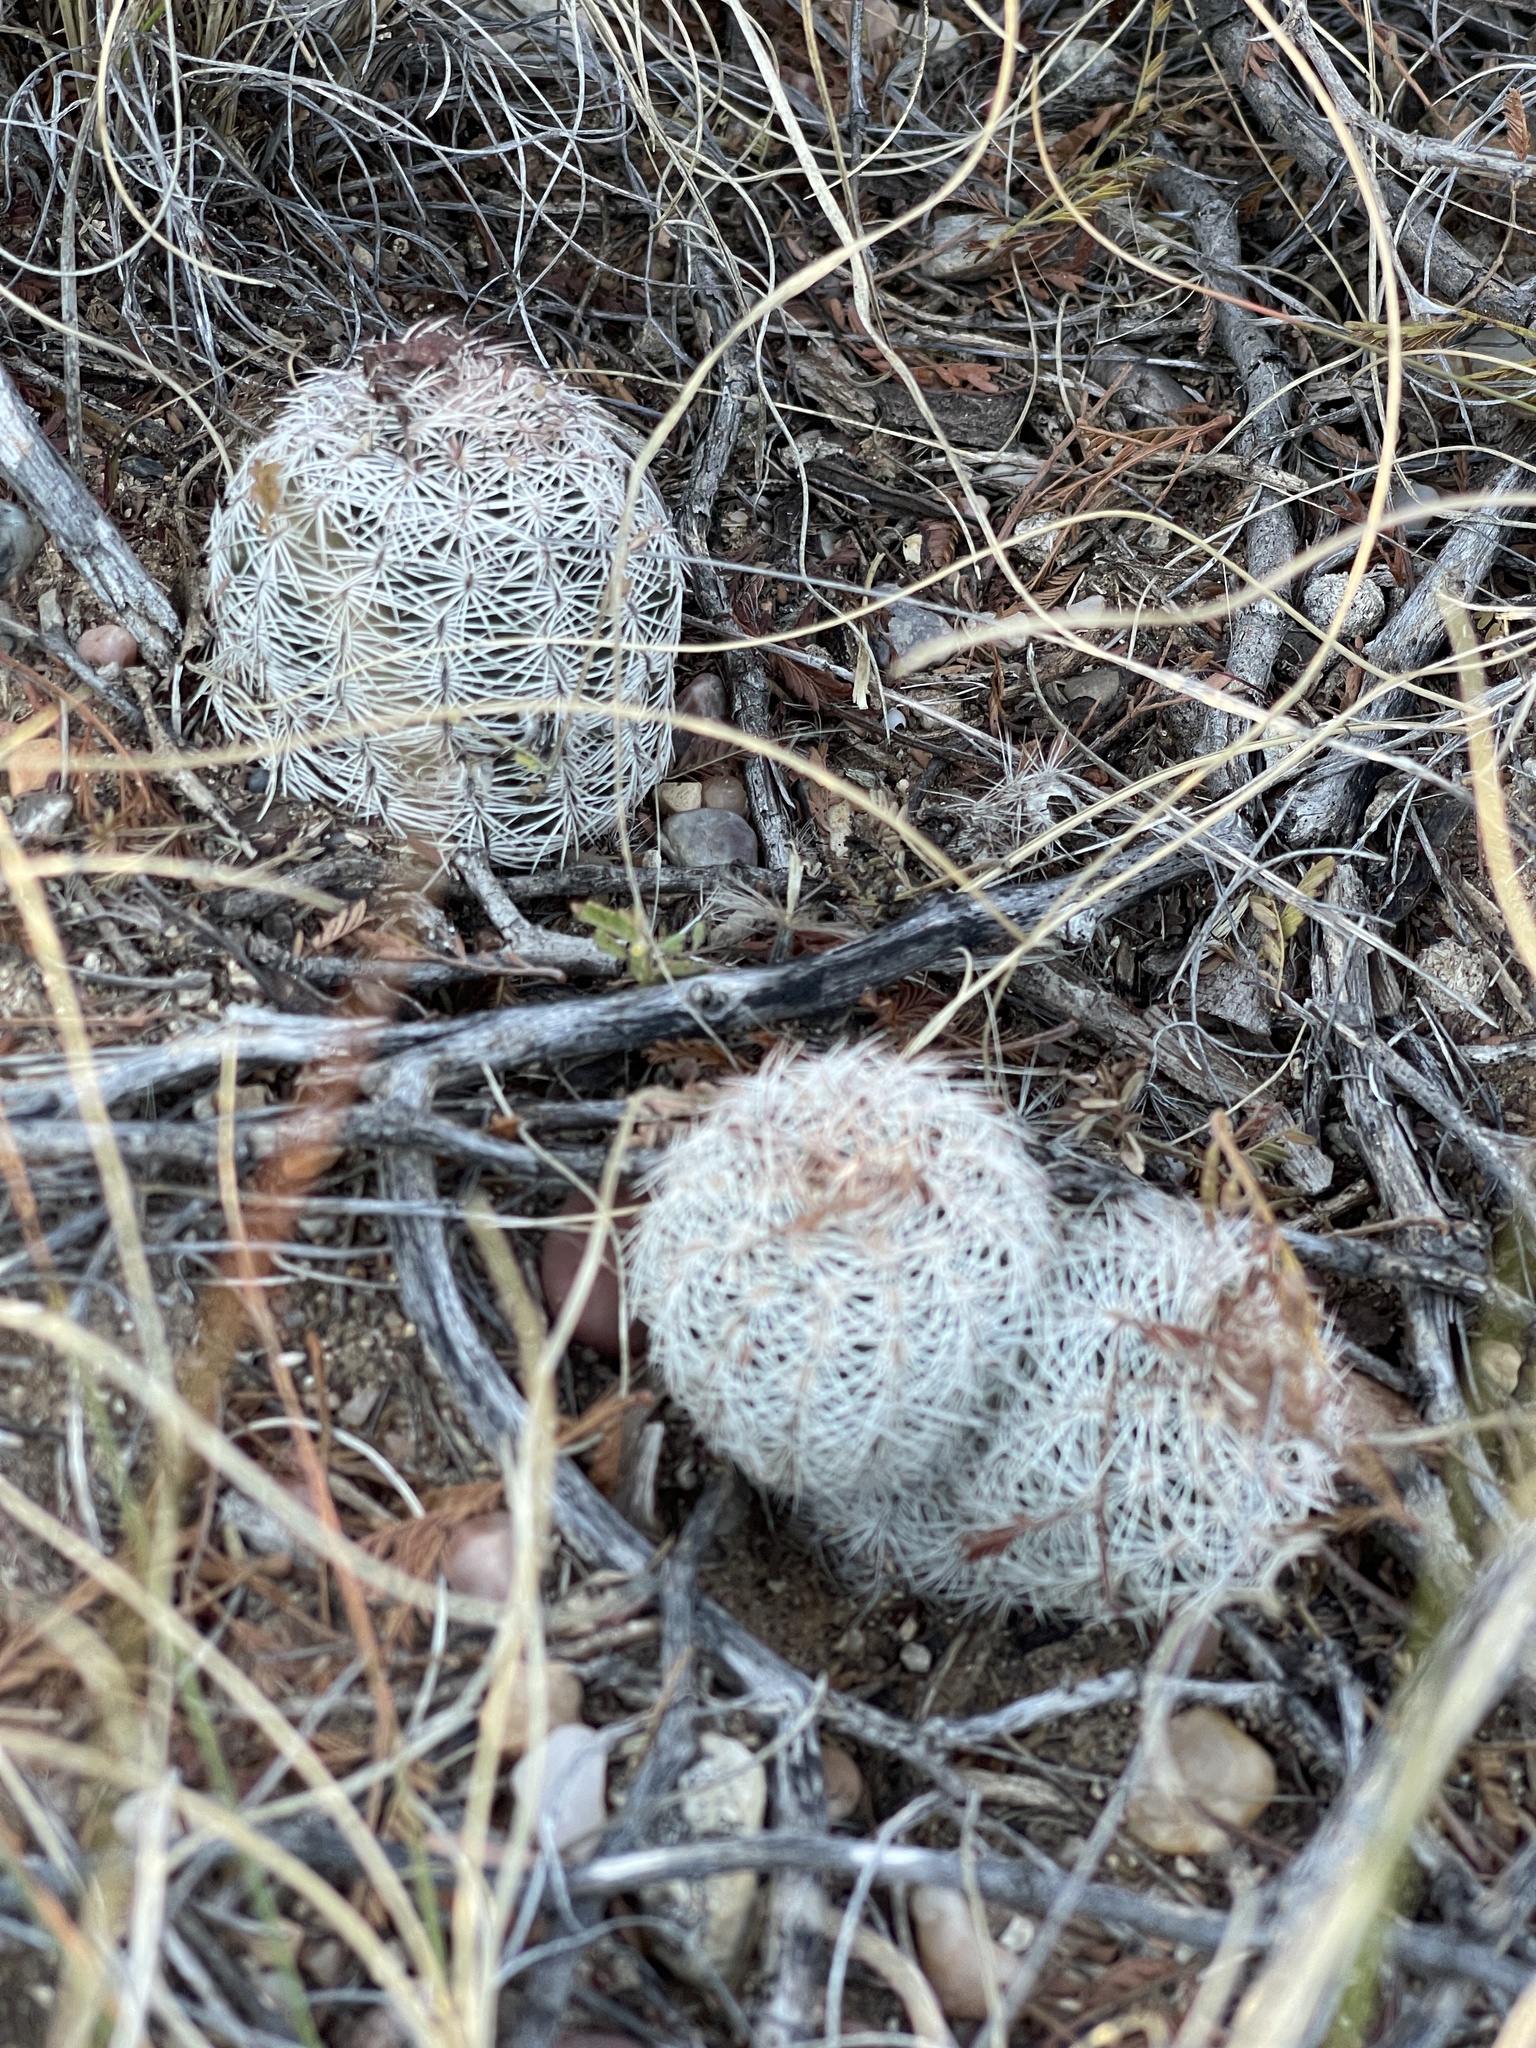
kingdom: Plantae
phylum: Tracheophyta
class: Magnoliopsida
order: Caryophyllales
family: Cactaceae
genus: Echinocereus
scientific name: Echinocereus reichenbachii
